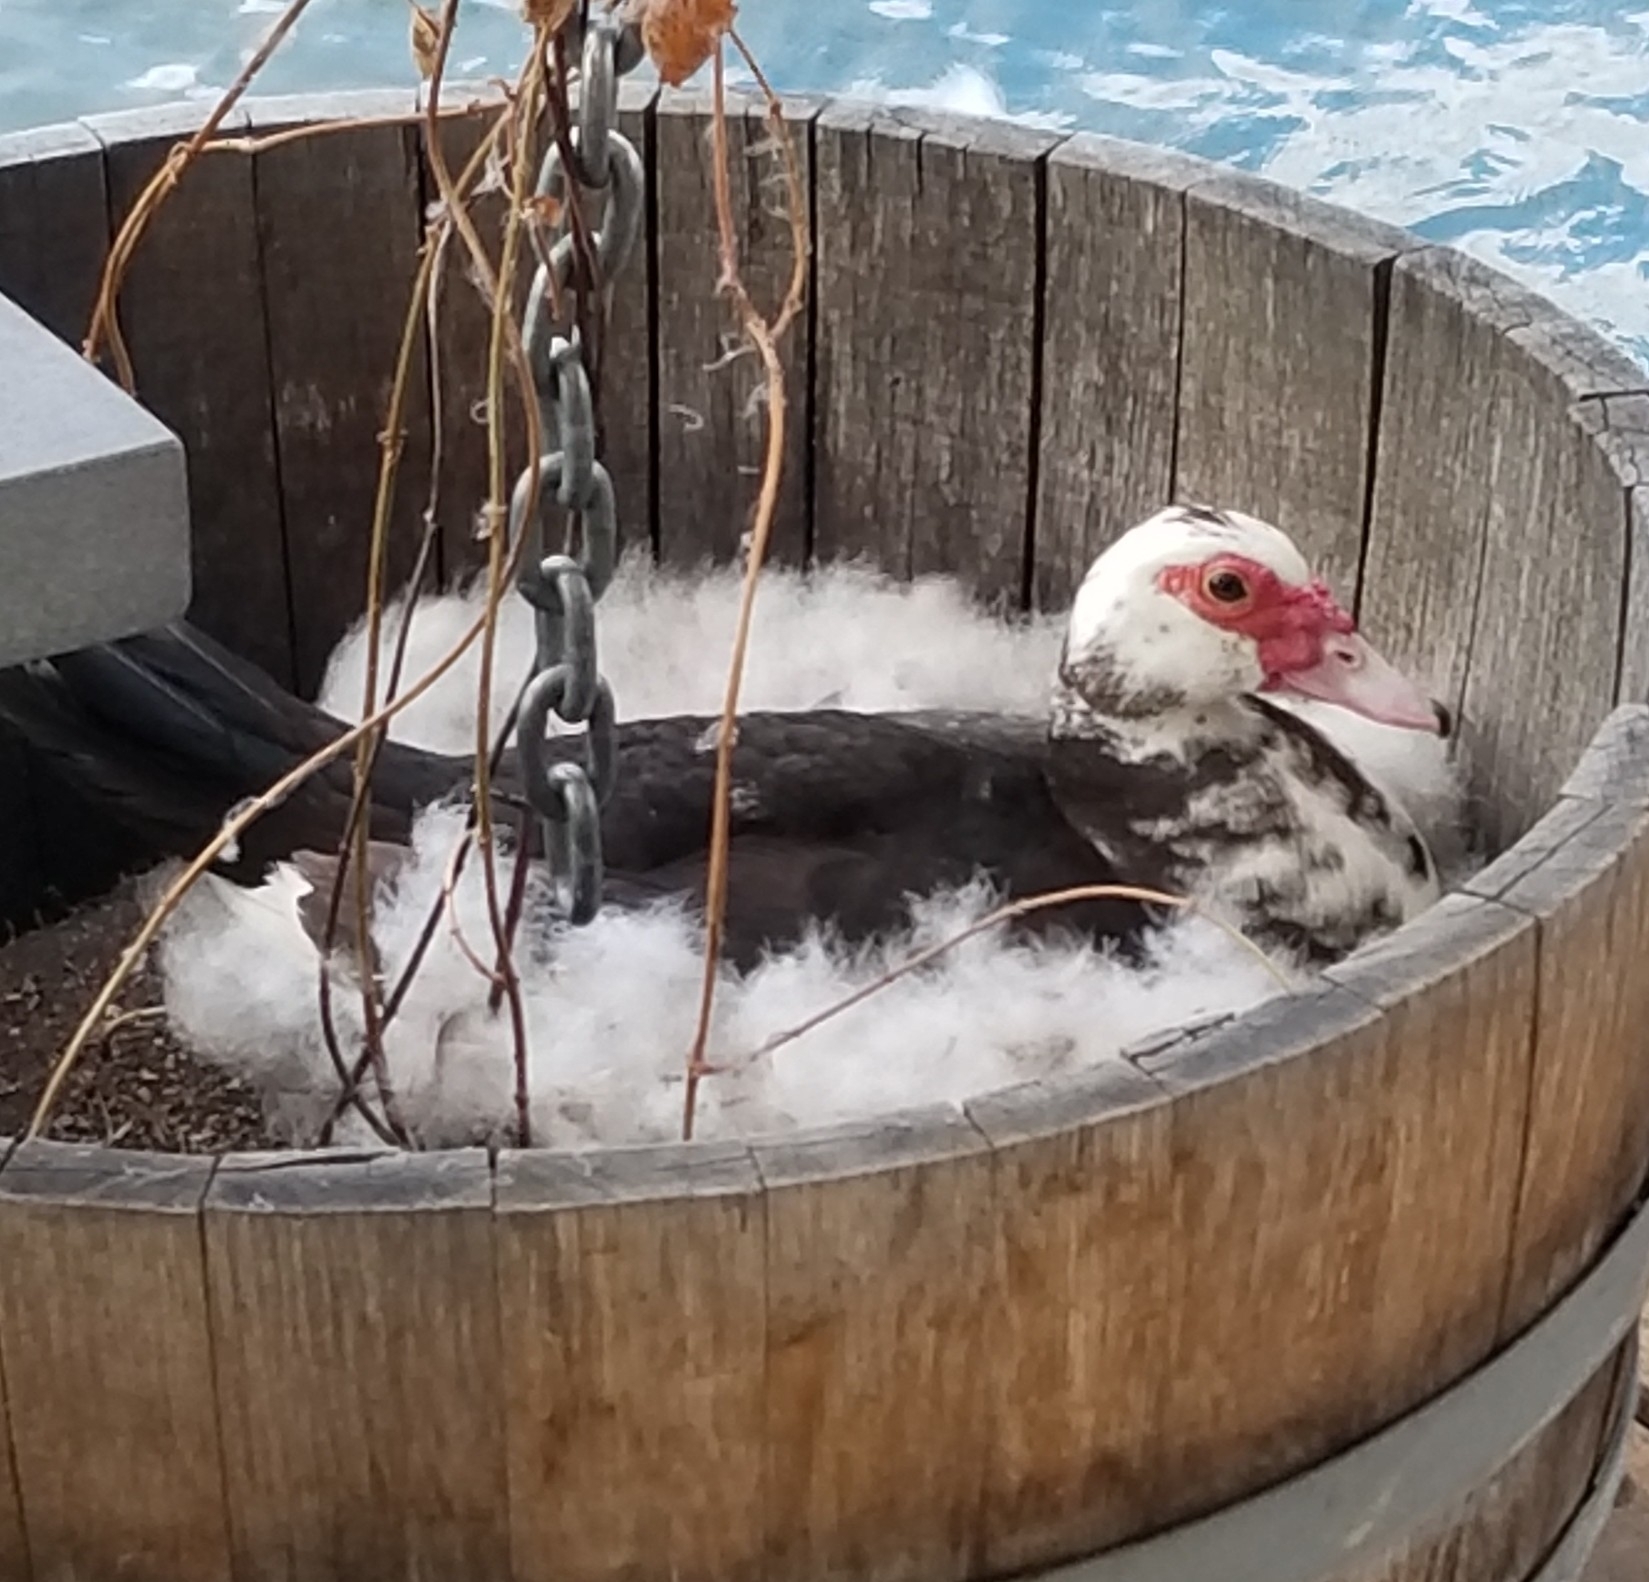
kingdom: Animalia
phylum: Chordata
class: Aves
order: Anseriformes
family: Anatidae
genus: Cairina
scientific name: Cairina moschata
